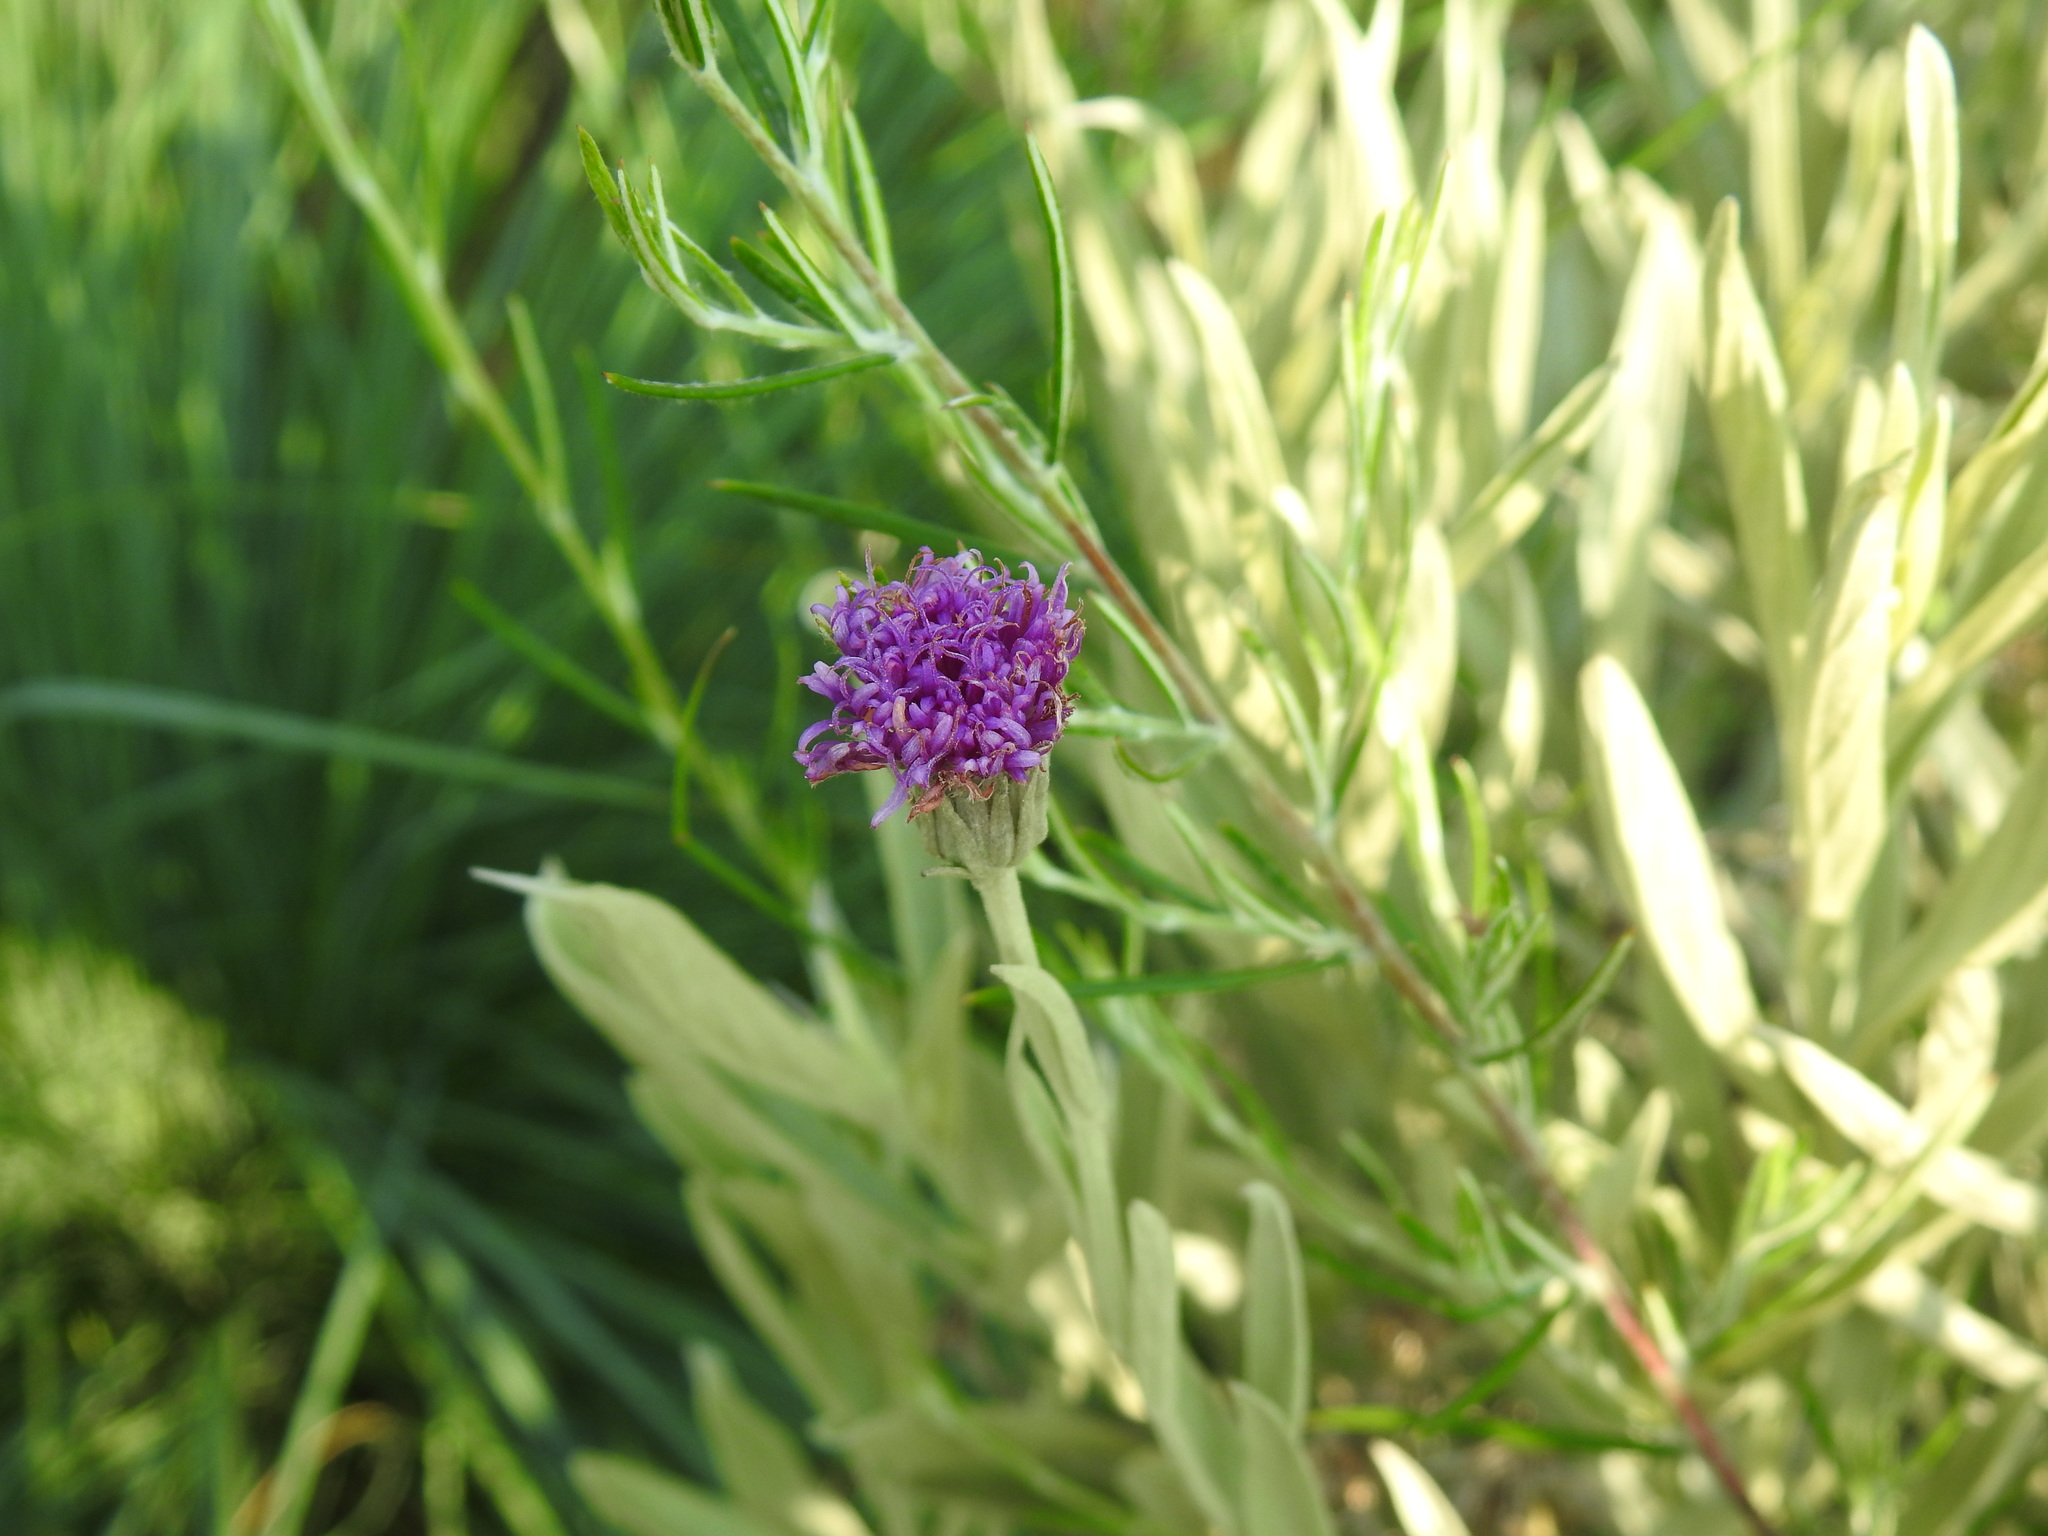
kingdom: Plantae
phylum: Tracheophyta
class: Magnoliopsida
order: Asterales
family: Asteraceae
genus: Hilliardiella
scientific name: Hilliardiella aristata
